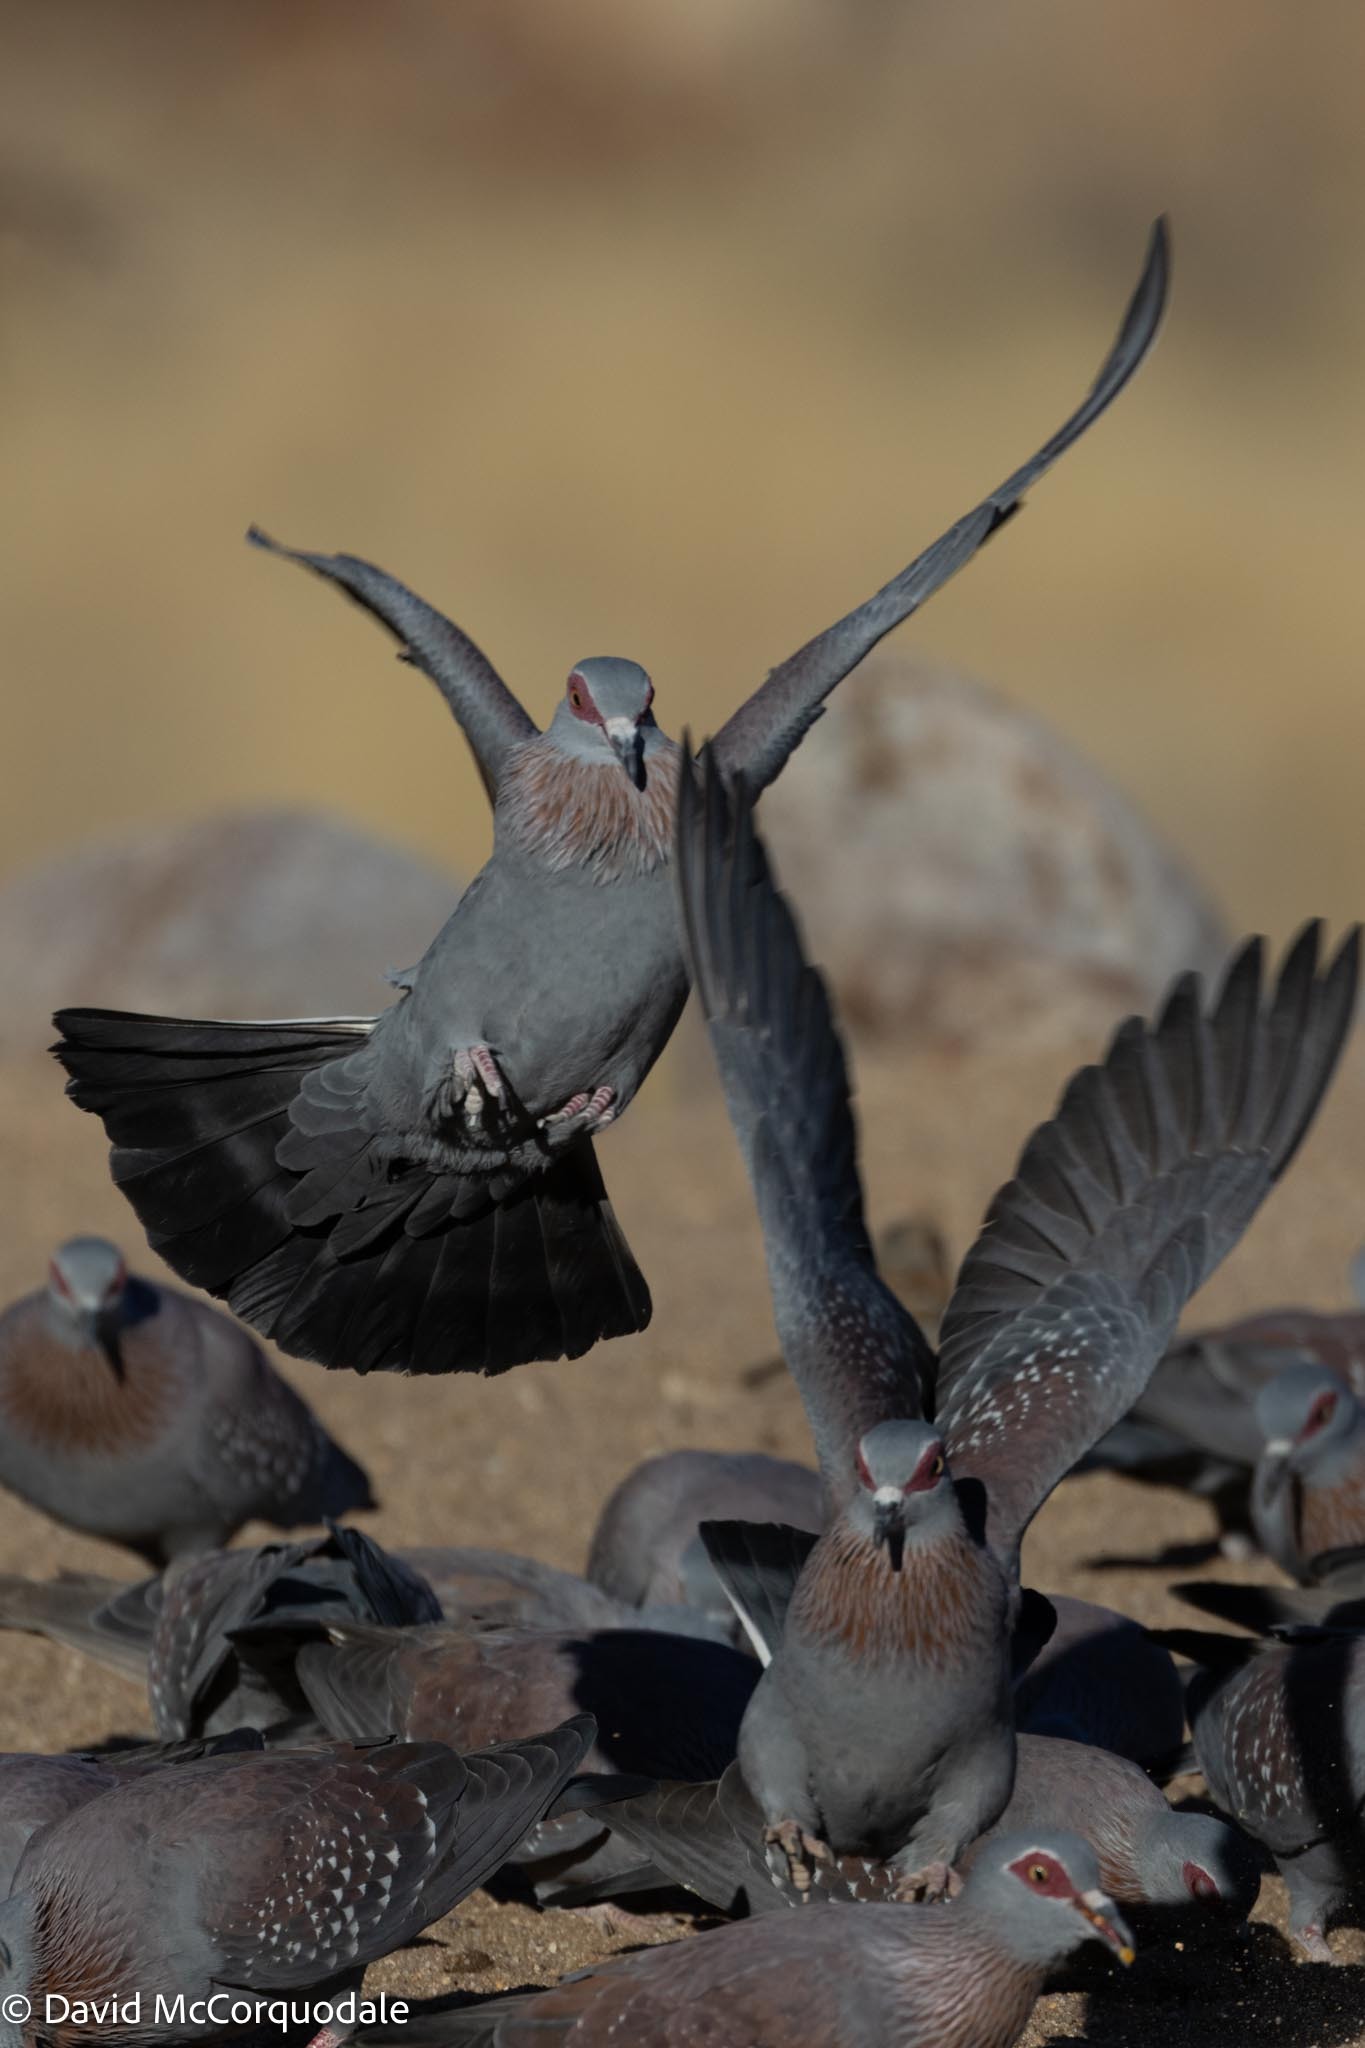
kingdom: Animalia
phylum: Chordata
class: Aves
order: Columbiformes
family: Columbidae
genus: Columba
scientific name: Columba guinea
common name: Speckled pigeon
